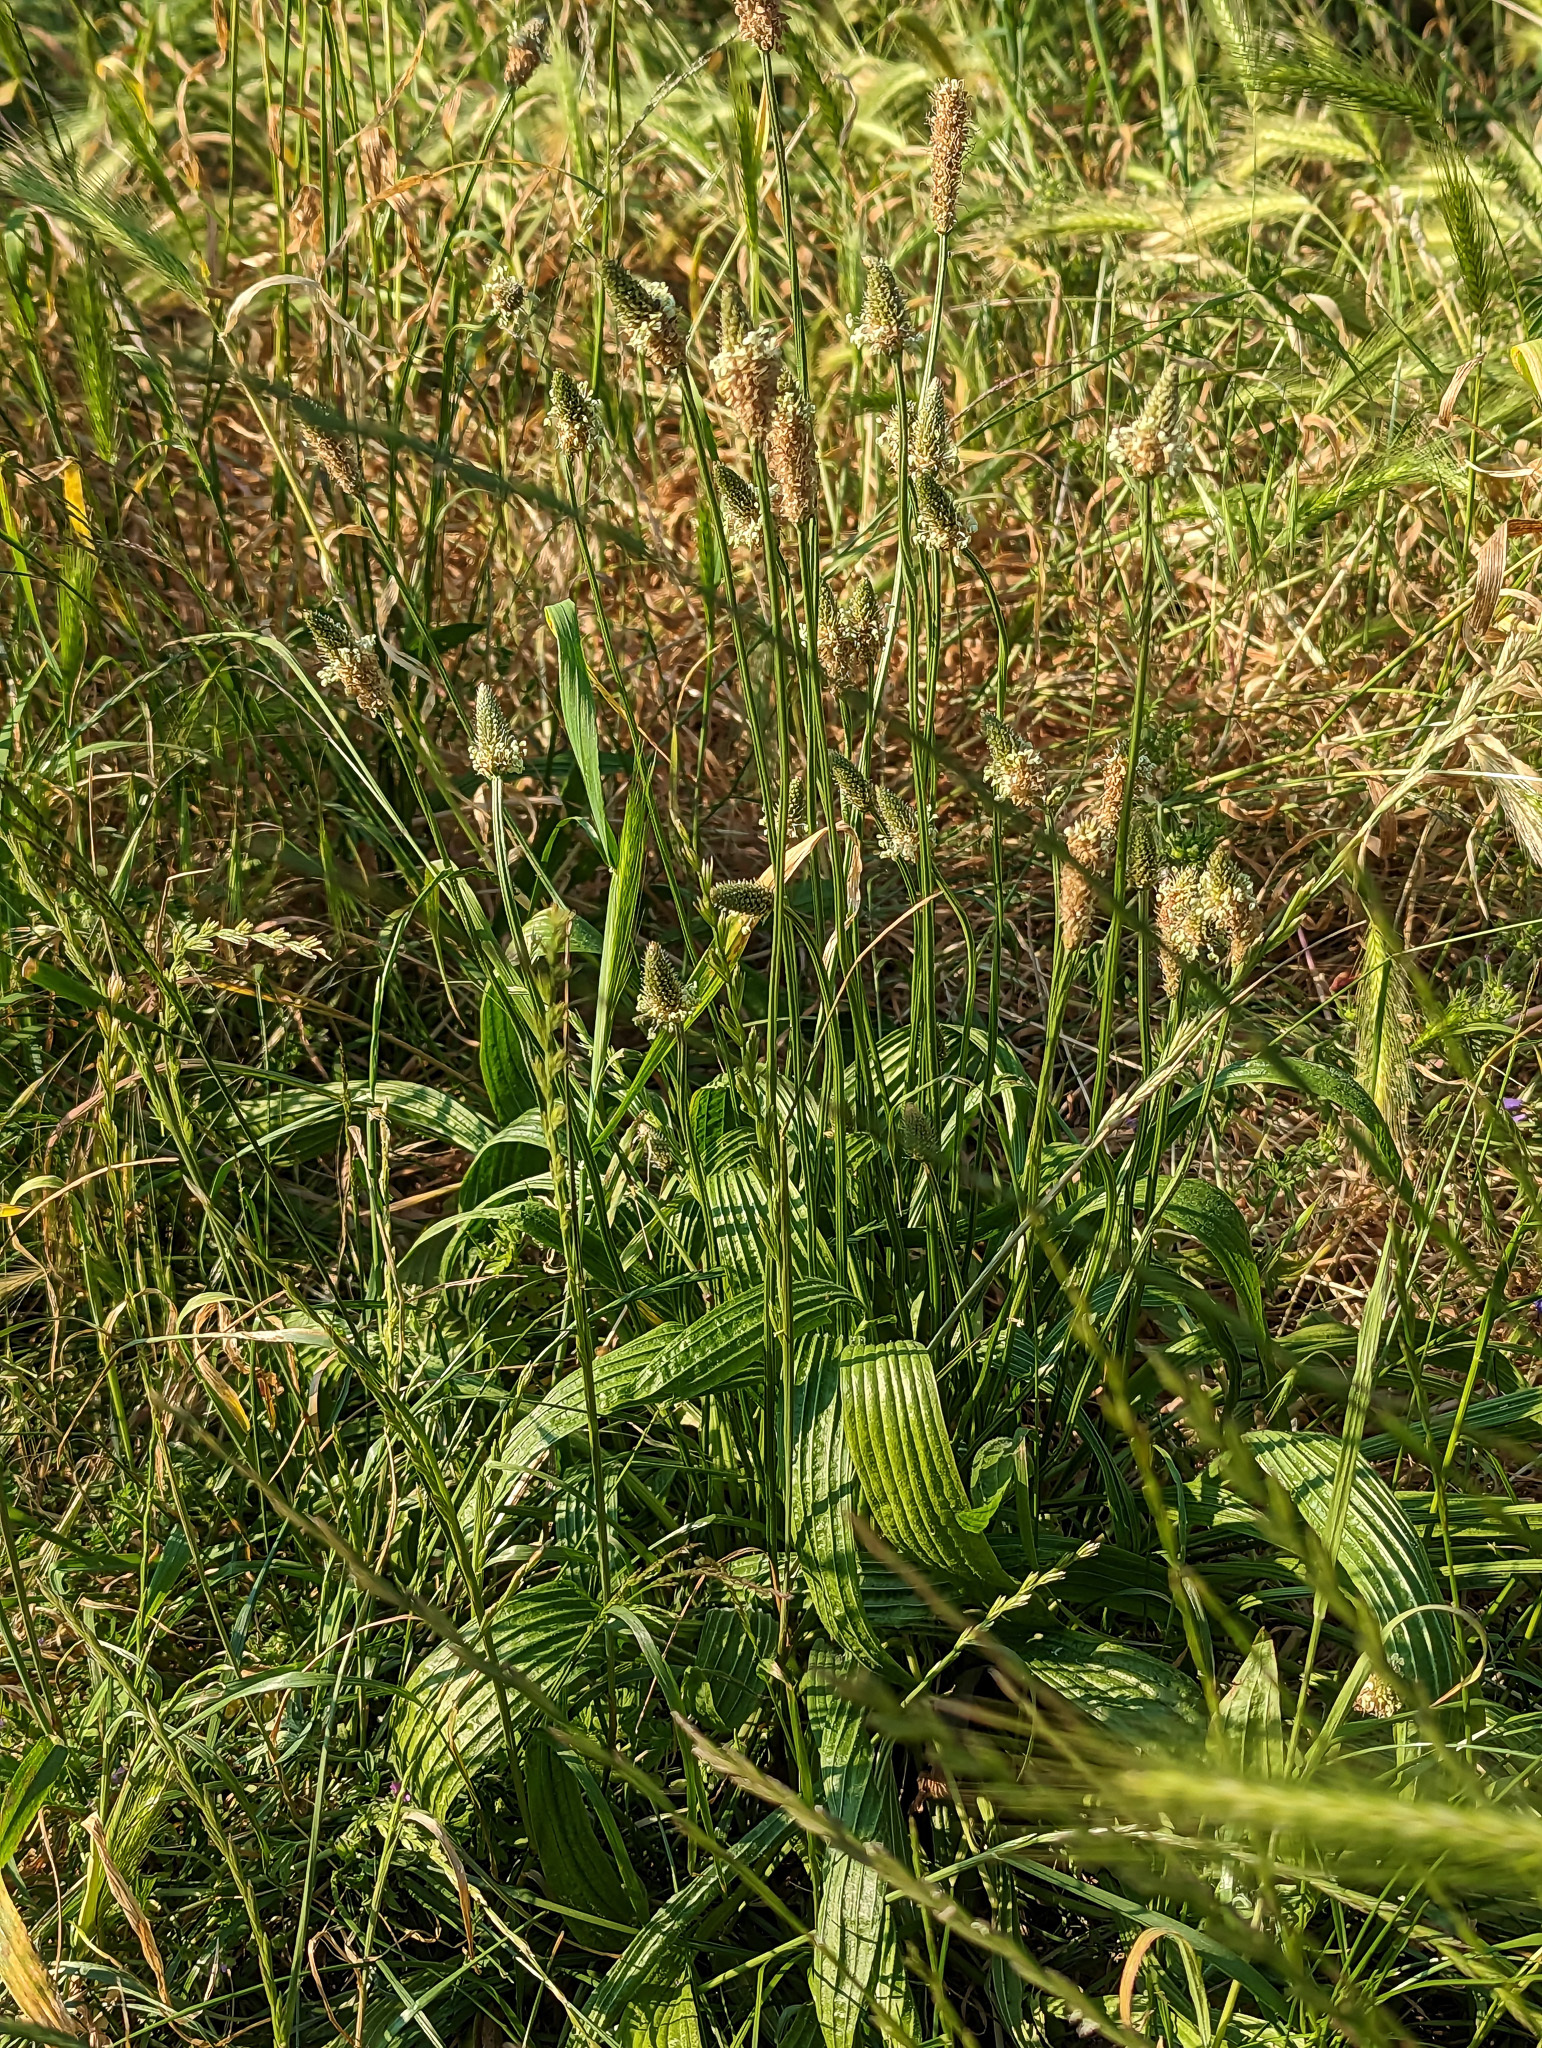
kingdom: Plantae
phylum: Tracheophyta
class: Magnoliopsida
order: Lamiales
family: Plantaginaceae
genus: Plantago
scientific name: Plantago lanceolata
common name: Ribwort plantain
